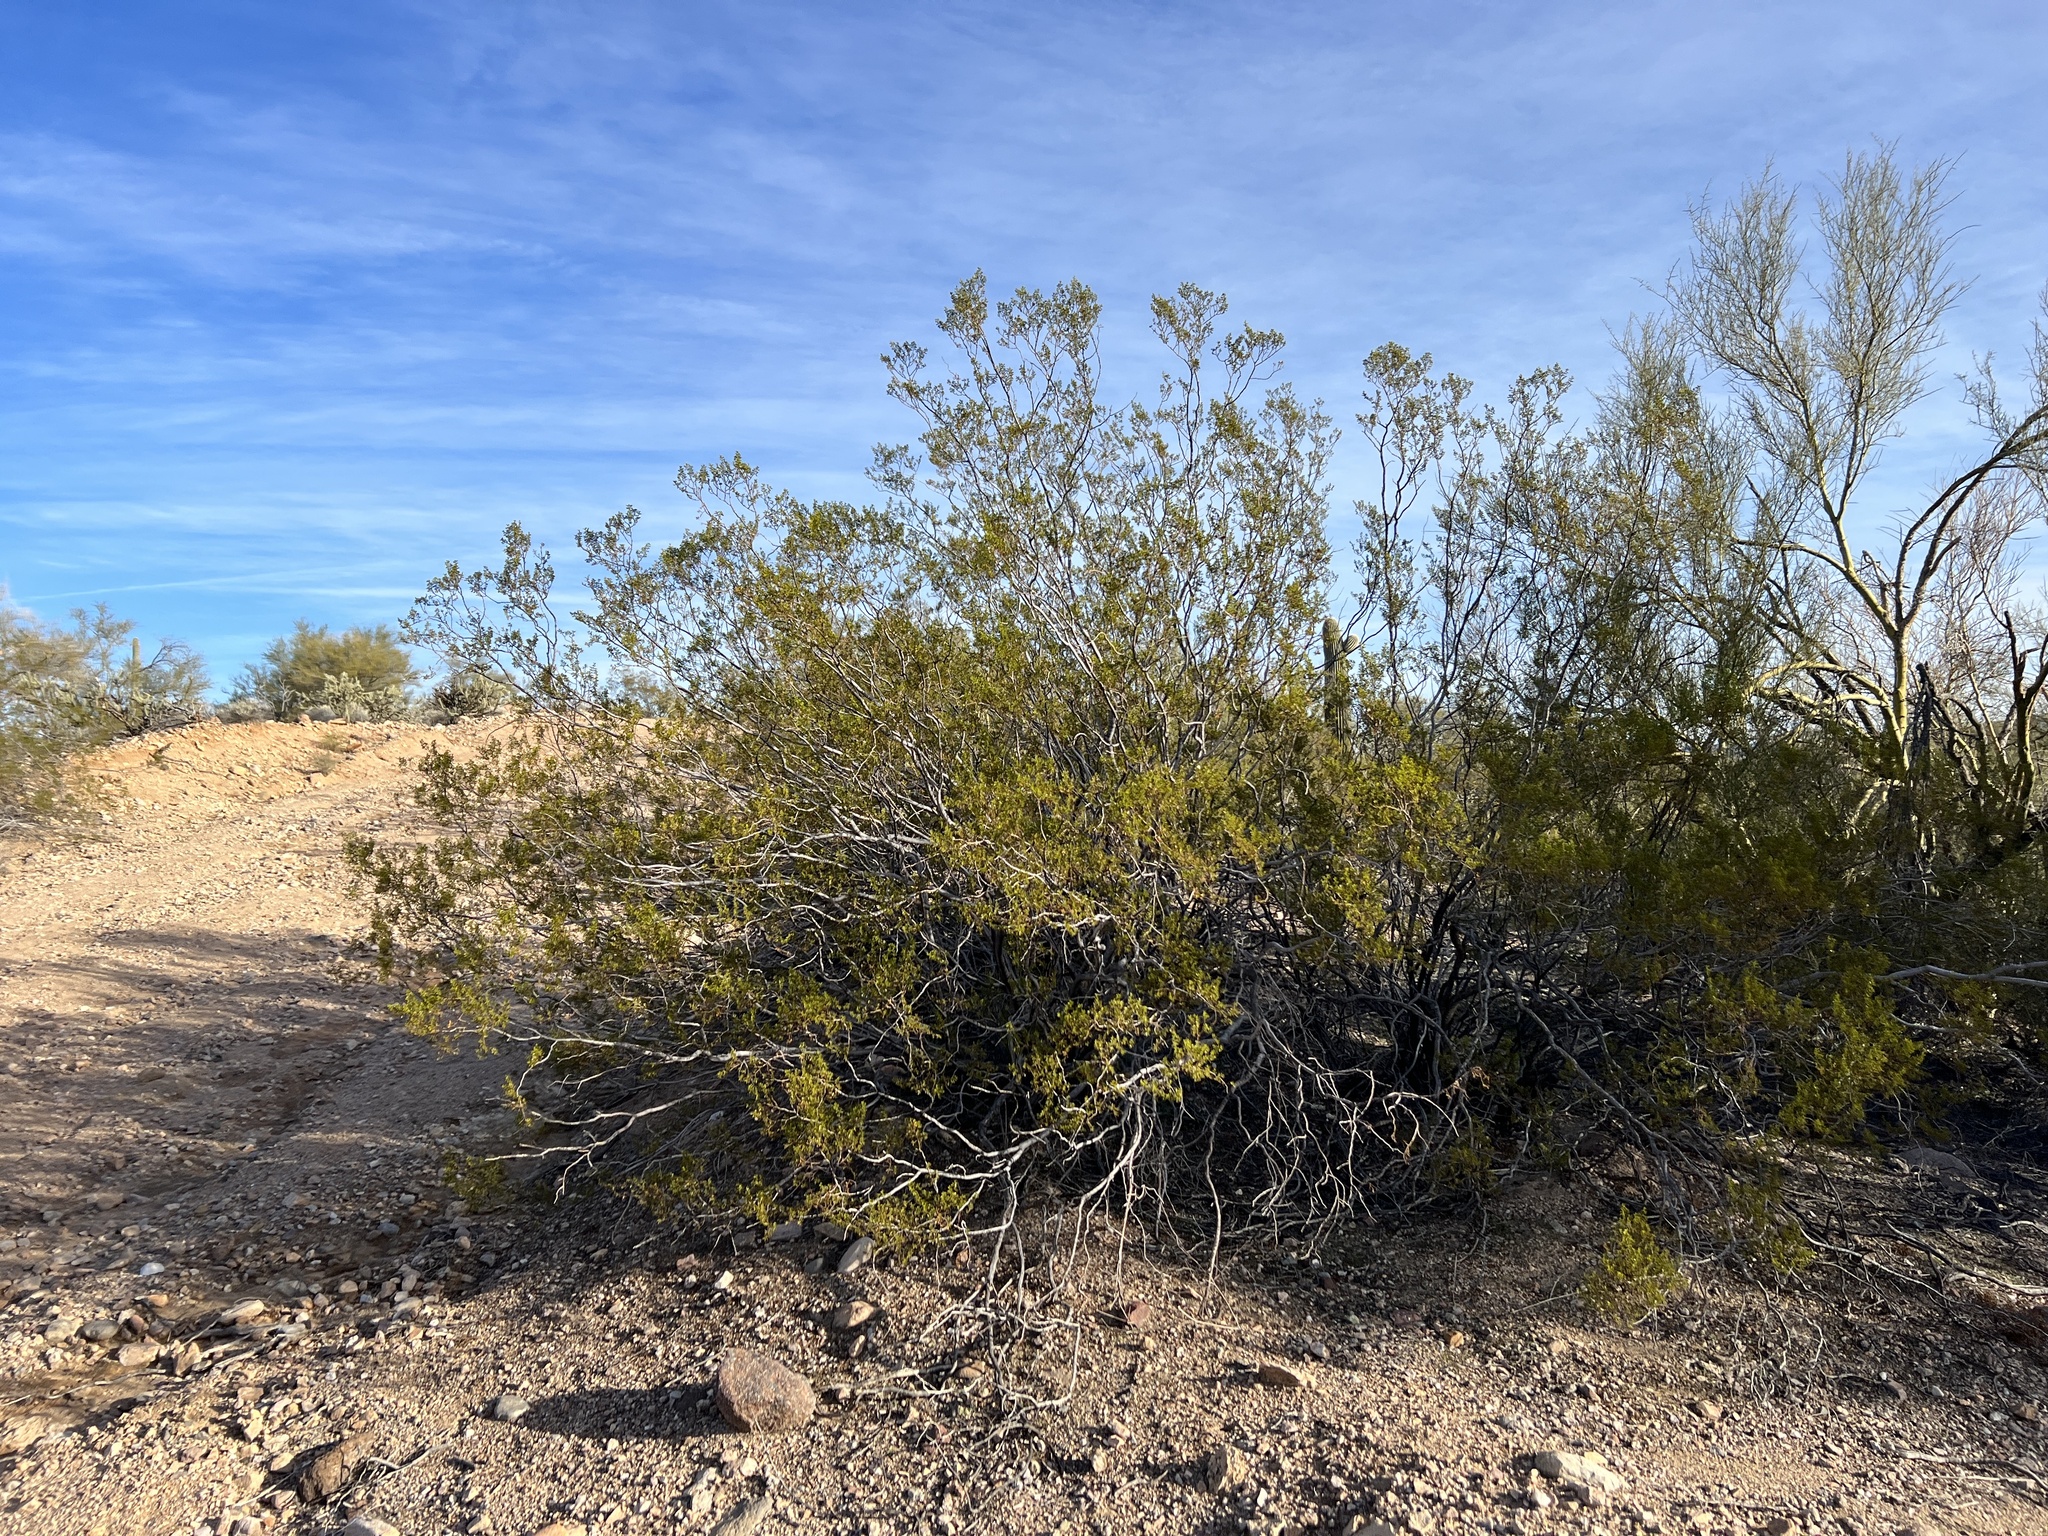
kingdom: Plantae
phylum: Tracheophyta
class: Magnoliopsida
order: Zygophyllales
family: Zygophyllaceae
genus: Larrea
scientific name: Larrea tridentata
